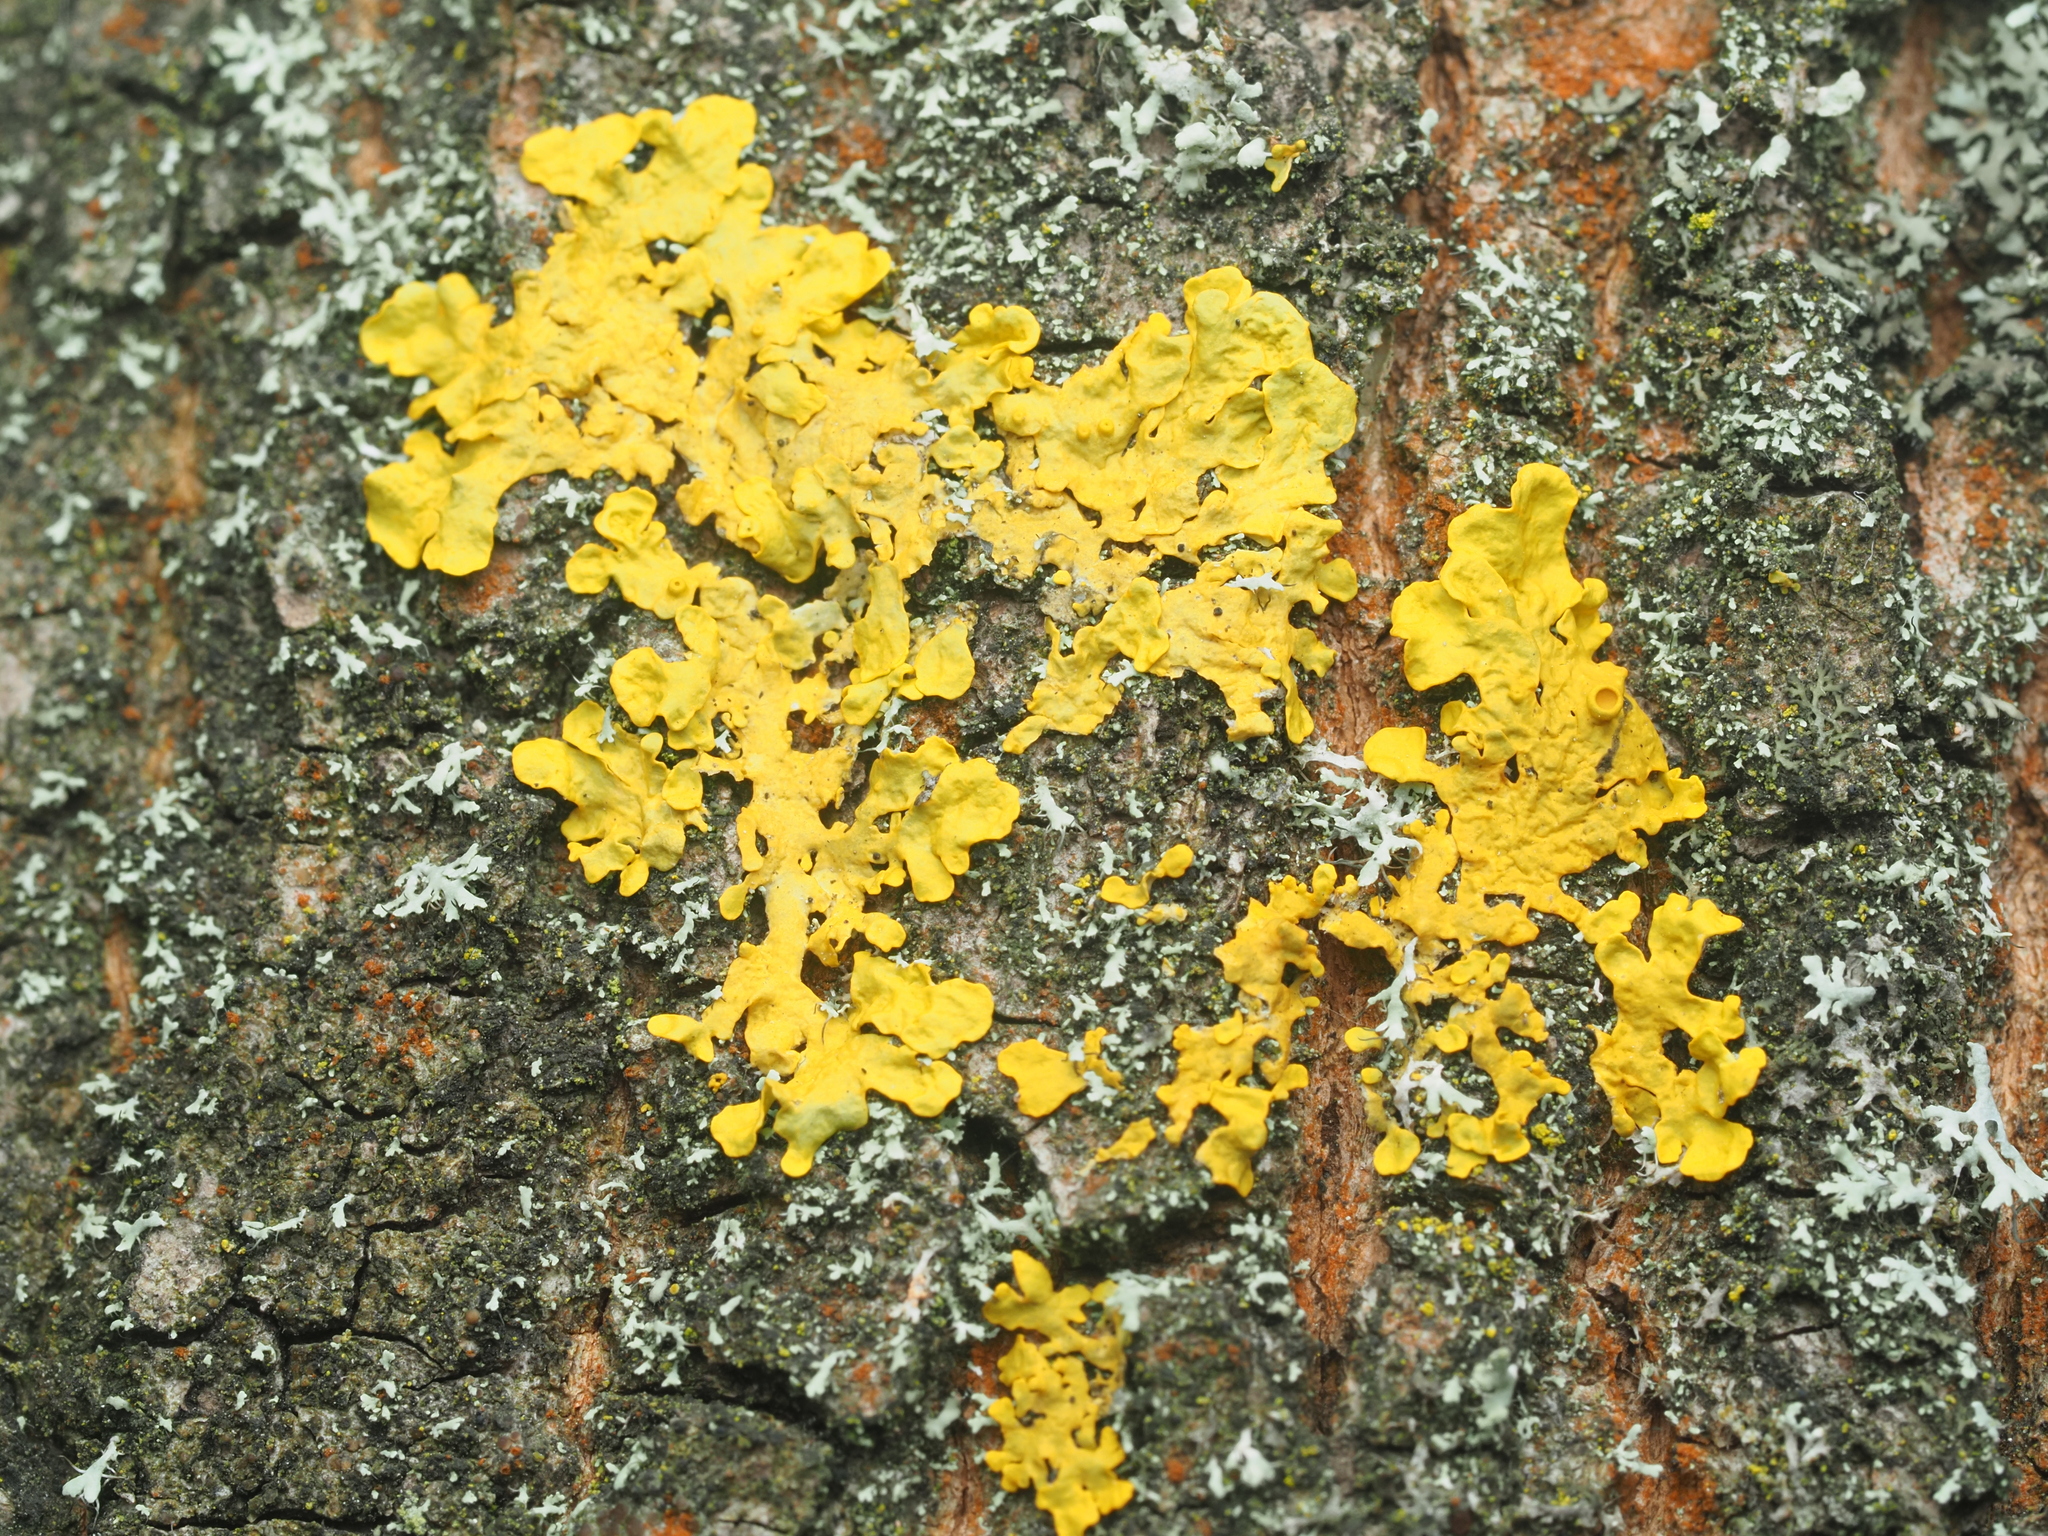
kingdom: Fungi
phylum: Ascomycota
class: Lecanoromycetes
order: Teloschistales
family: Teloschistaceae
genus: Xanthoria
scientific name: Xanthoria parietina
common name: Common orange lichen
